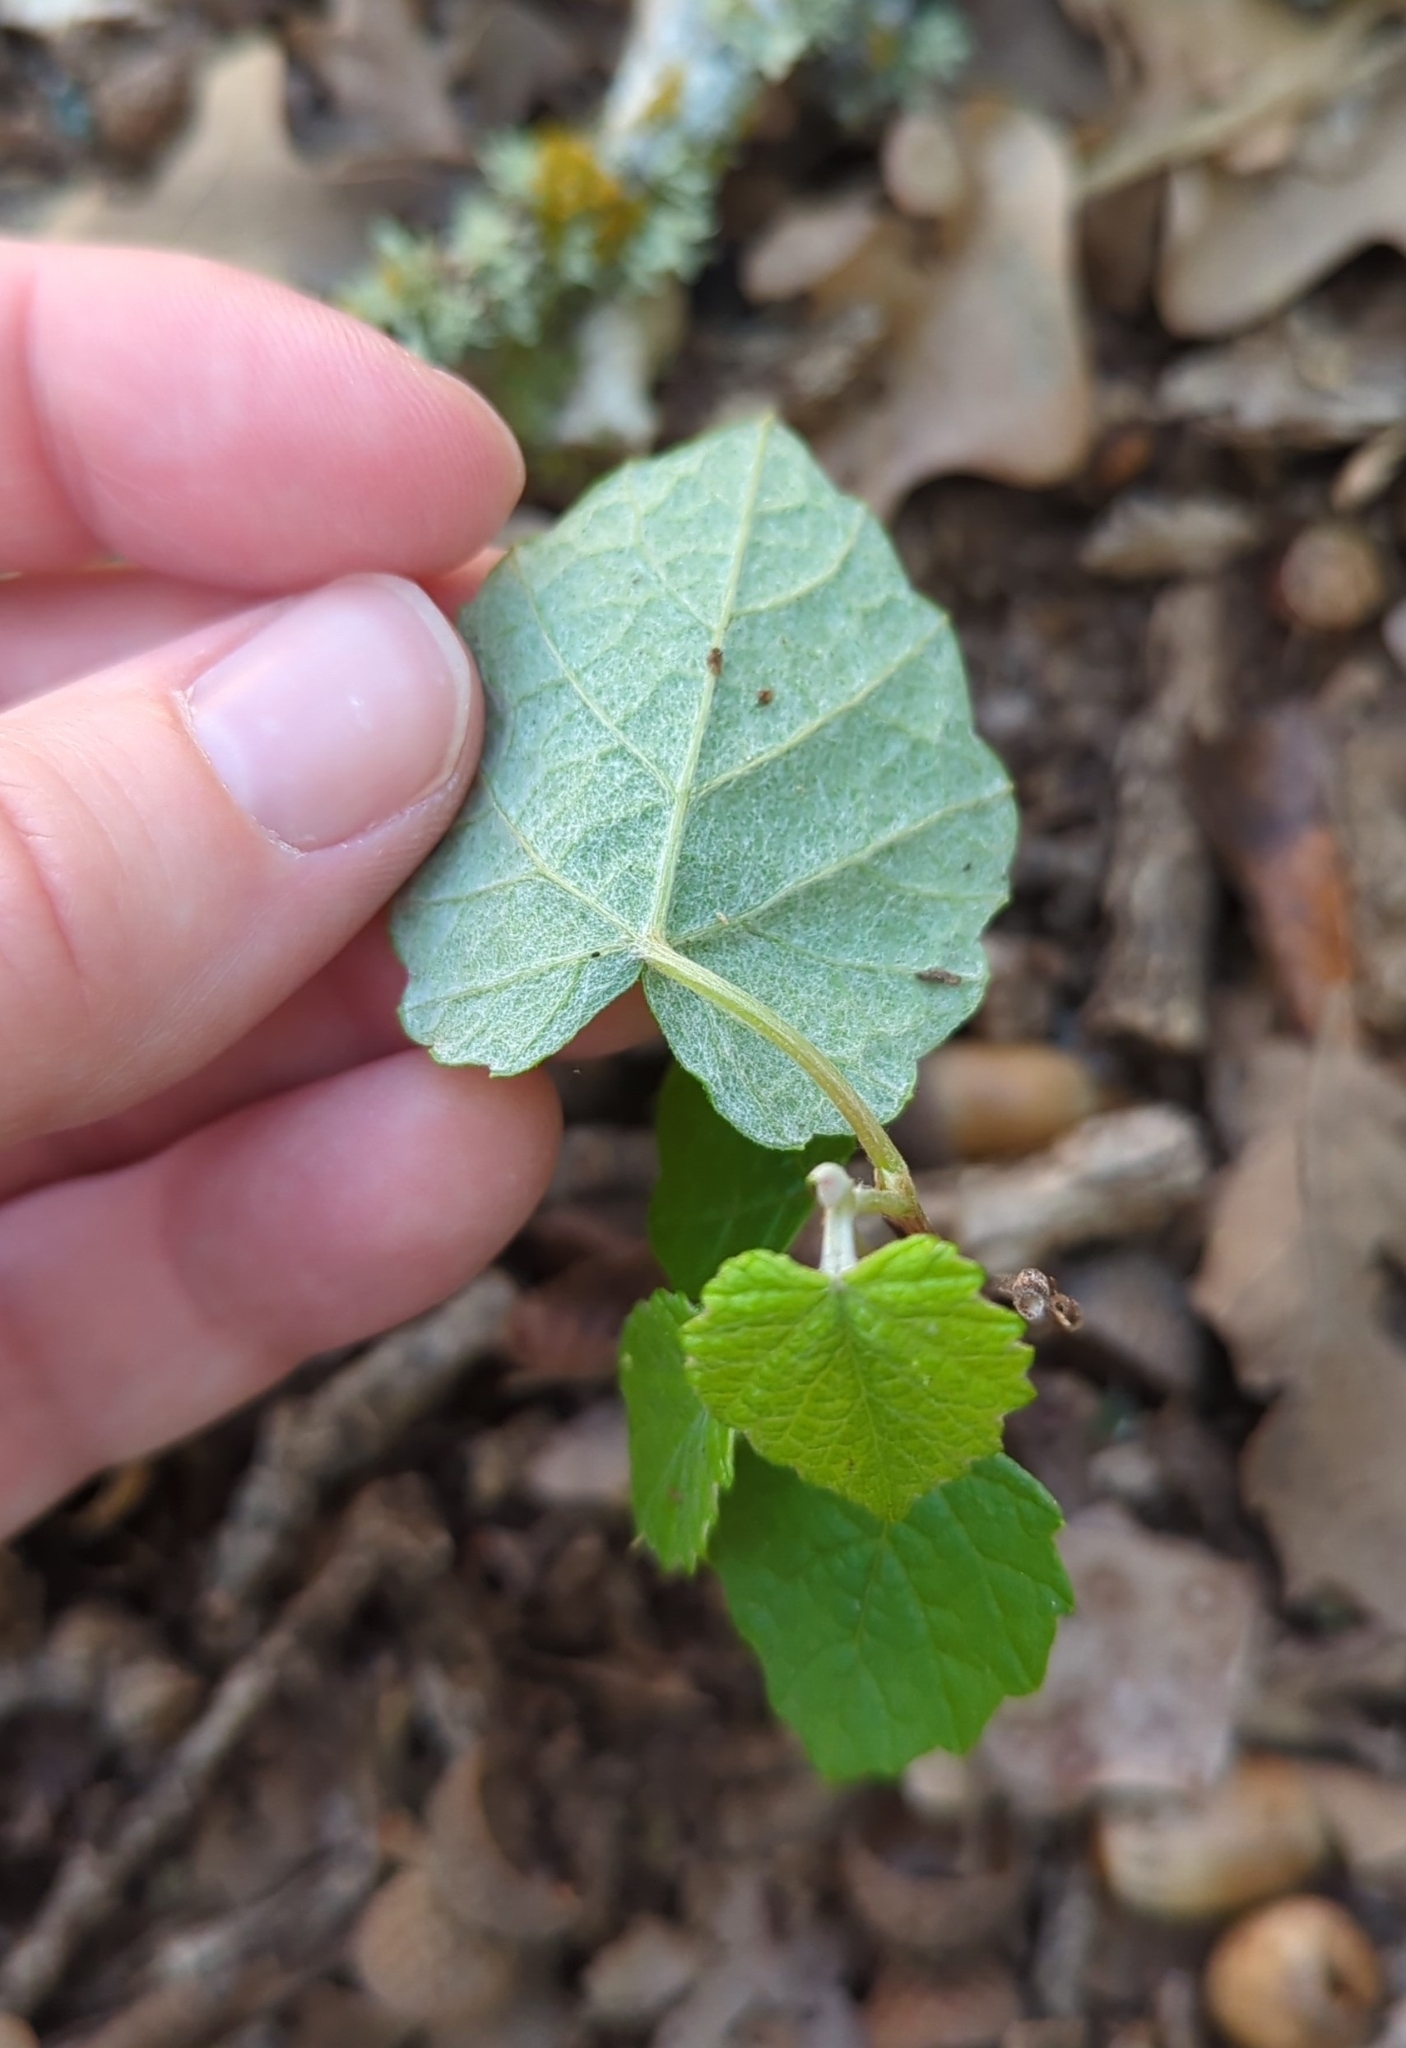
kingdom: Plantae
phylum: Tracheophyta
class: Magnoliopsida
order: Vitales
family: Vitaceae
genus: Vitis
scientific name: Vitis mustangensis
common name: Mustang grape
